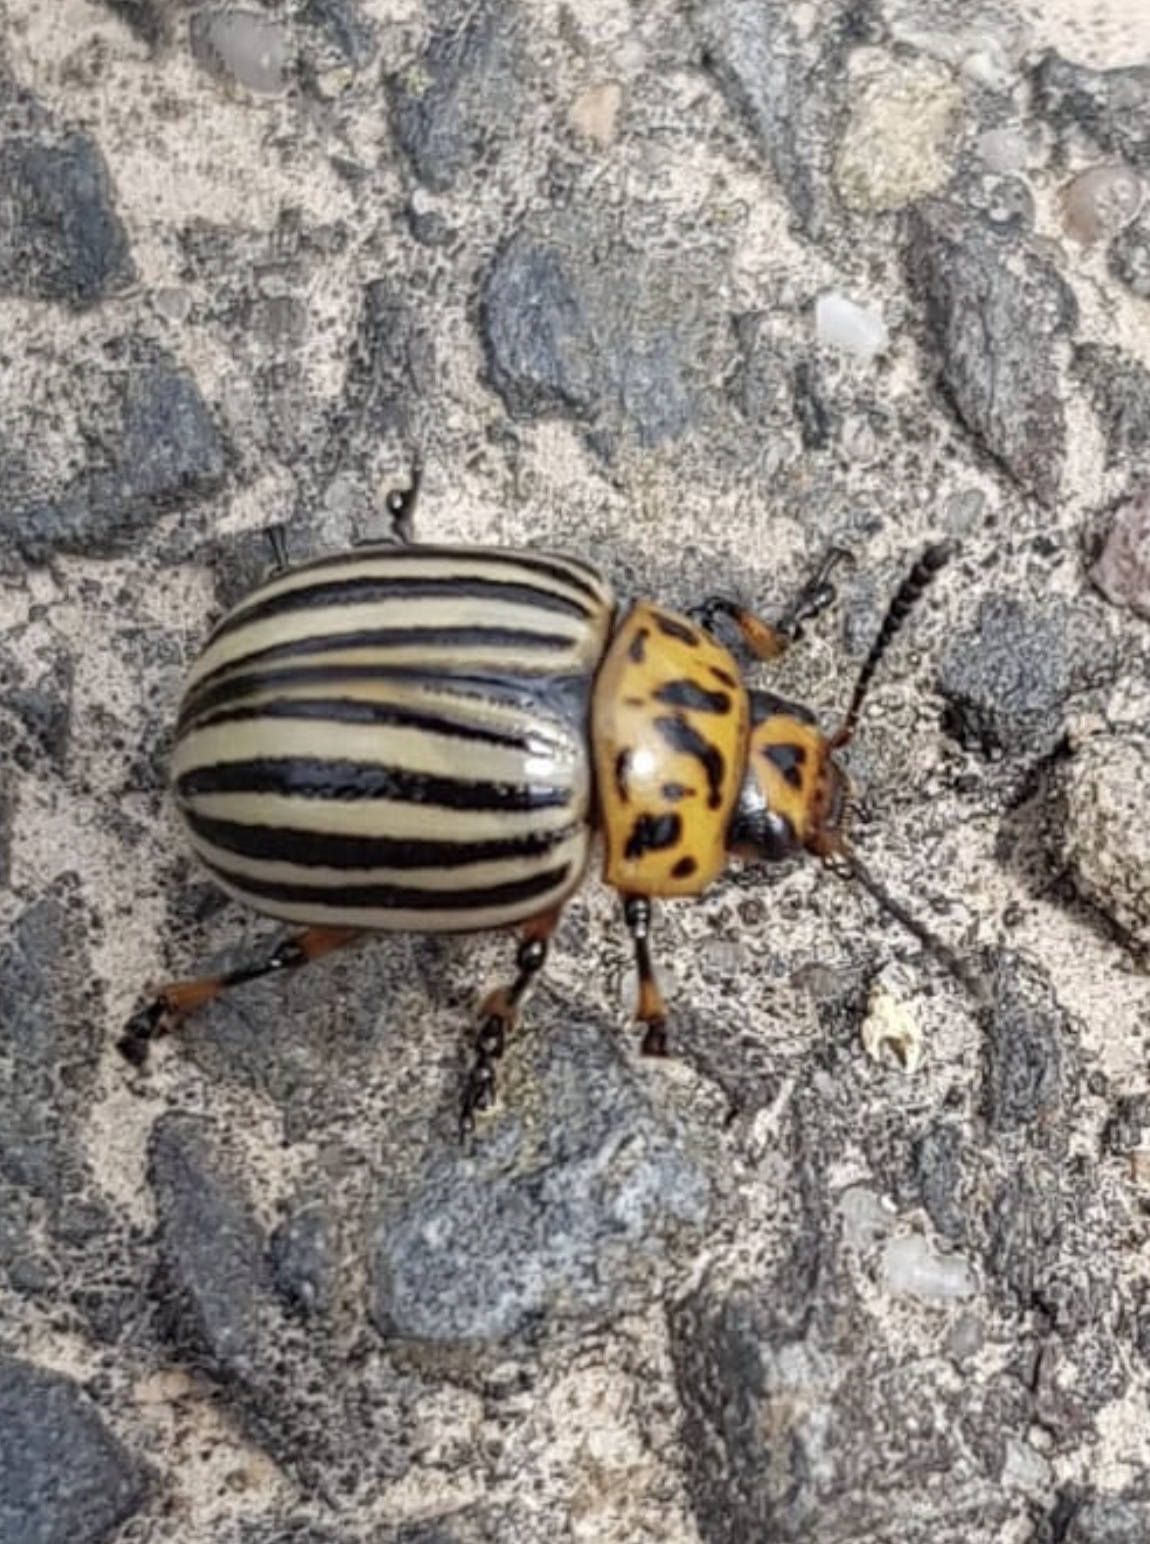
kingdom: Animalia
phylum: Arthropoda
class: Insecta
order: Coleoptera
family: Chrysomelidae
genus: Leptinotarsa
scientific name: Leptinotarsa decemlineata
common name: Colorado potato beetle
